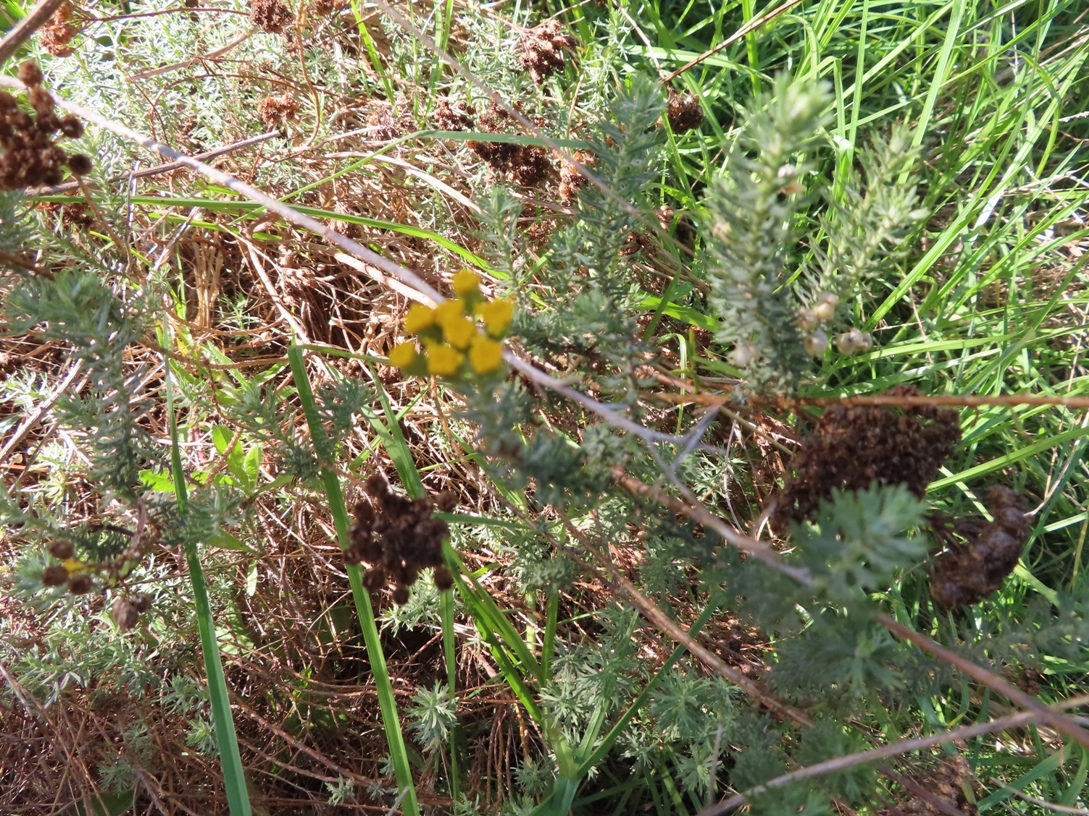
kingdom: Plantae
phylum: Tracheophyta
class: Magnoliopsida
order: Asterales
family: Asteraceae
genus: Athanasia
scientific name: Athanasia trifurcata
